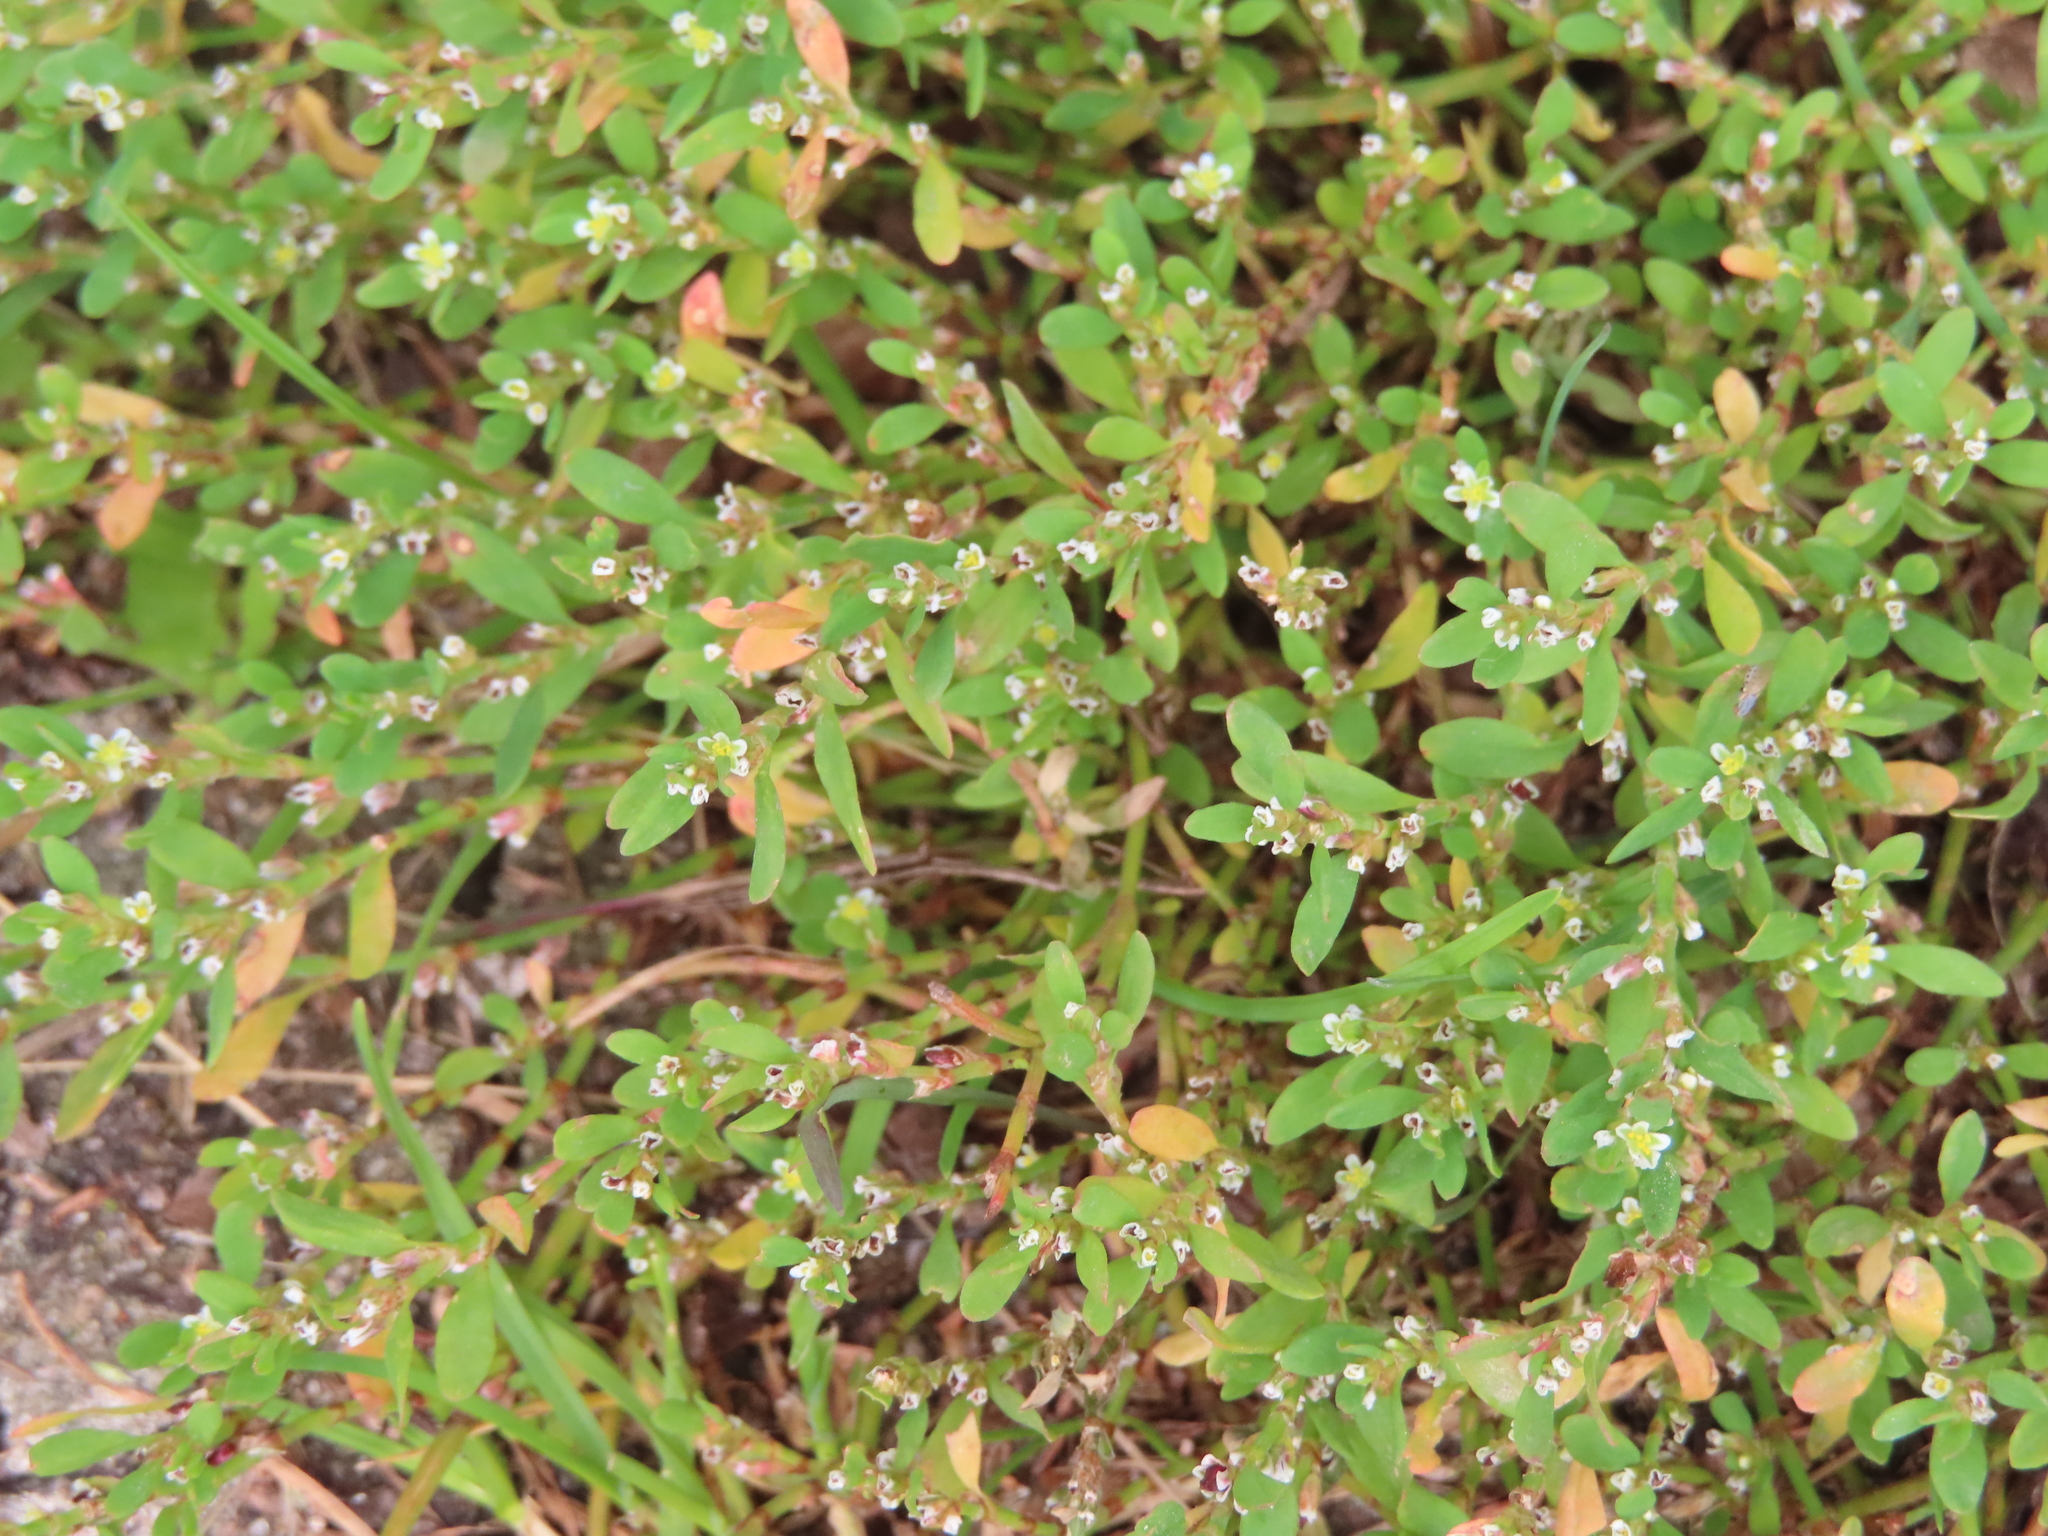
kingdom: Plantae
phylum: Tracheophyta
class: Magnoliopsida
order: Caryophyllales
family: Polygonaceae
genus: Polygonum
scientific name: Polygonum aviculare
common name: Prostrate knotweed
